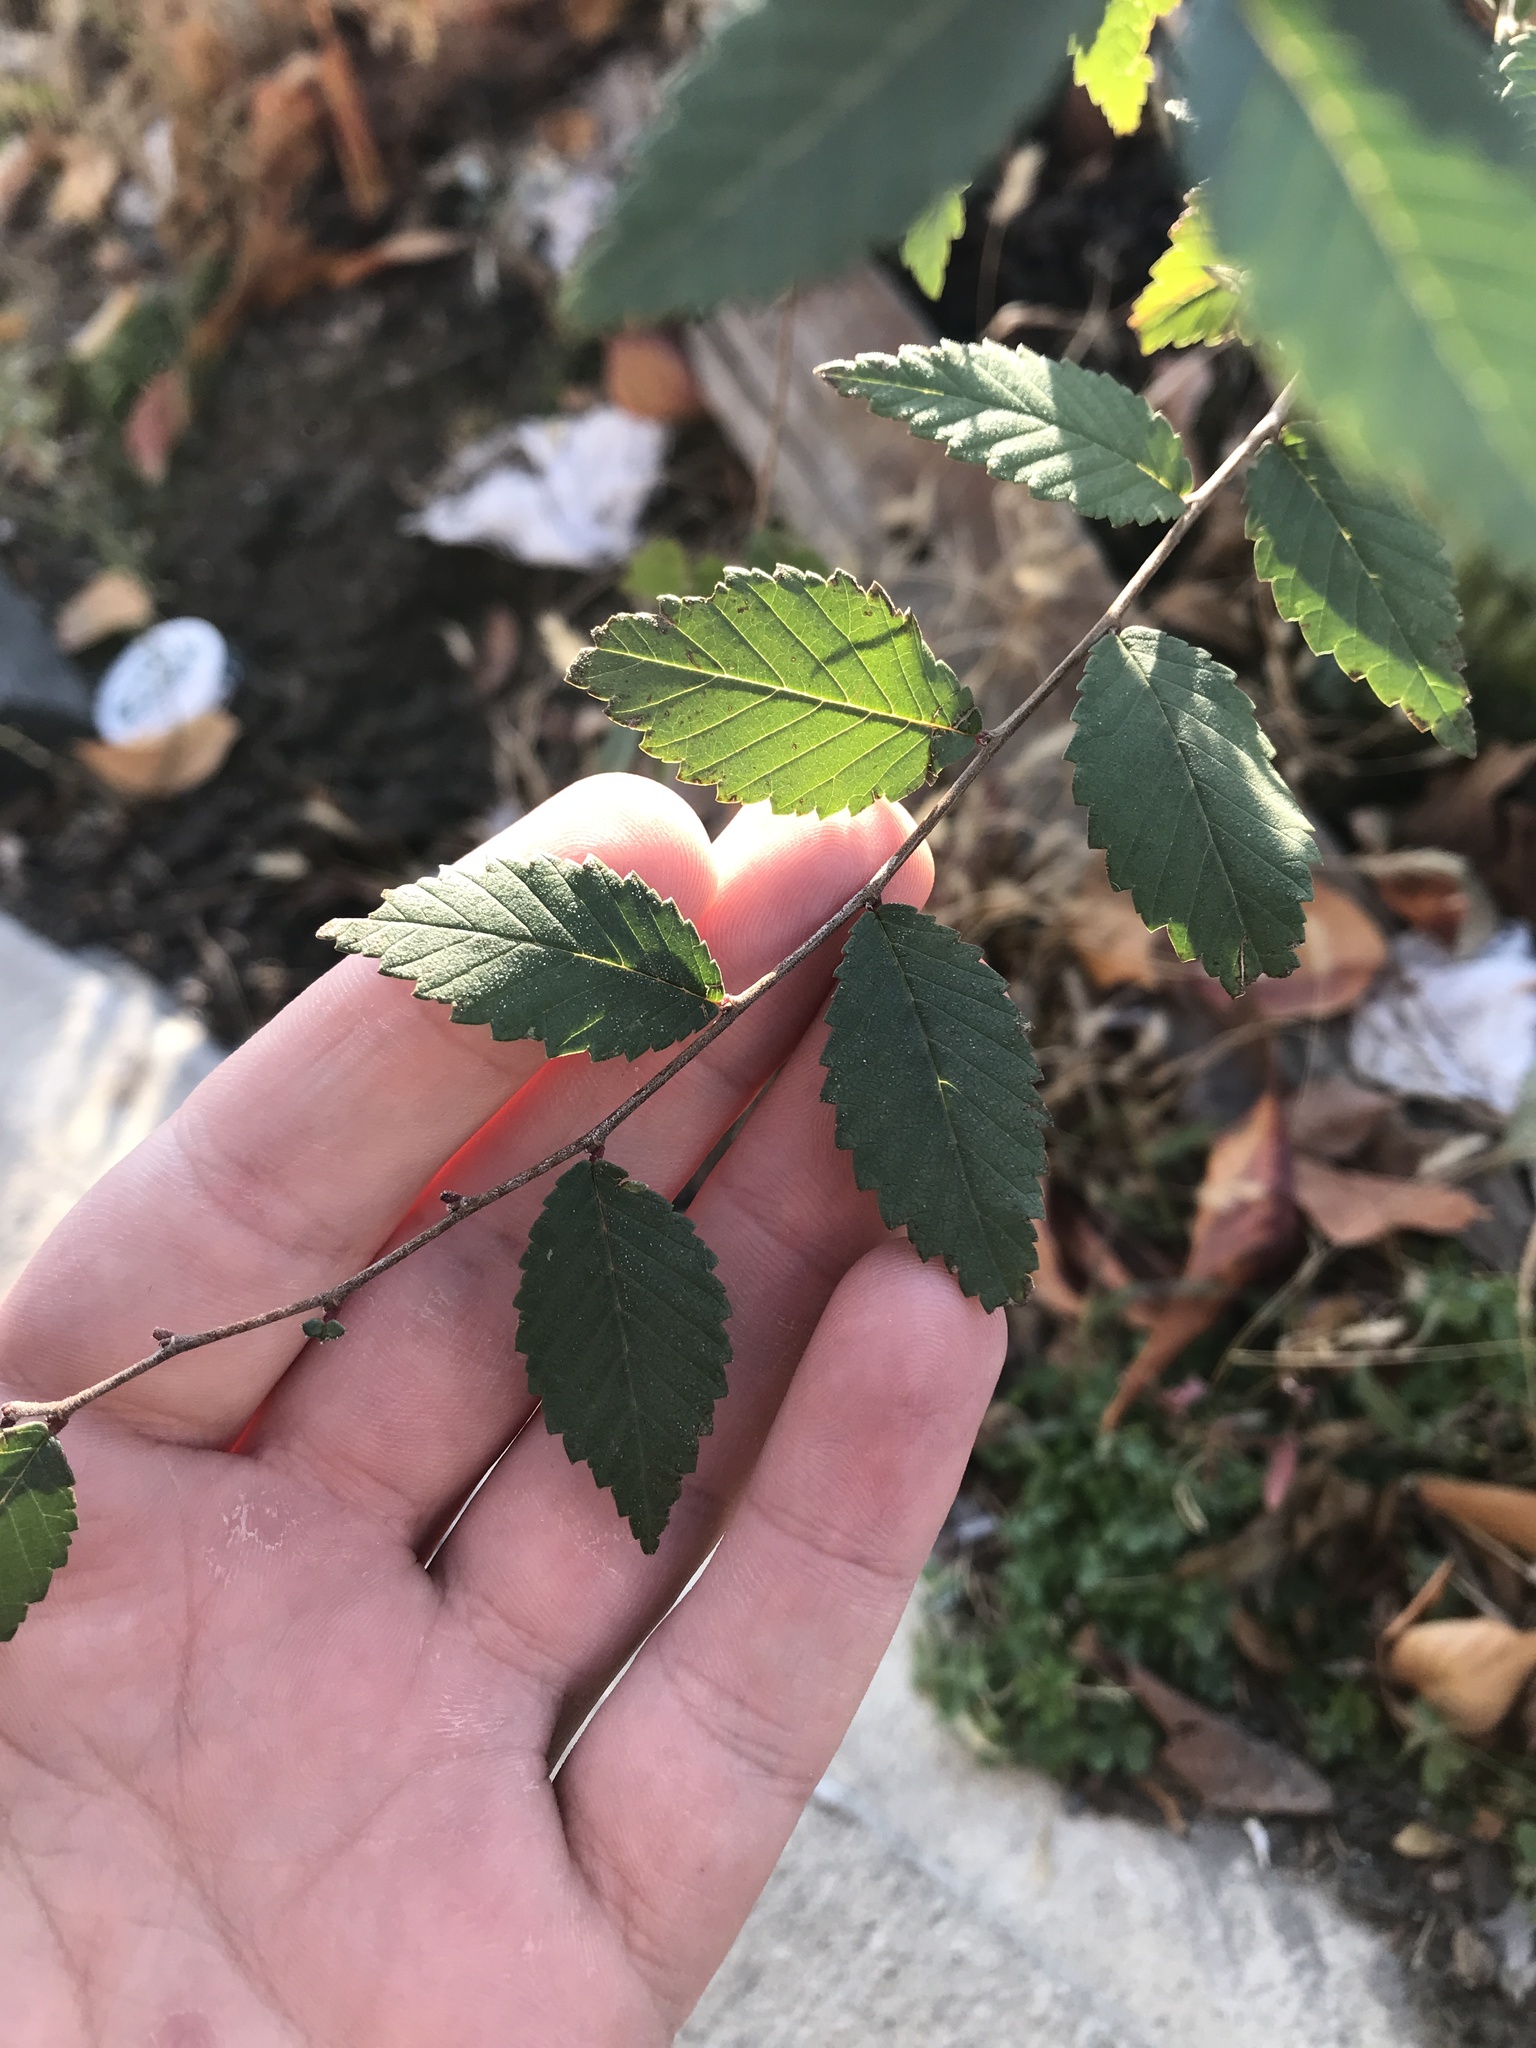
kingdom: Plantae
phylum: Tracheophyta
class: Magnoliopsida
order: Rosales
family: Ulmaceae
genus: Ulmus
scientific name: Ulmus pumila
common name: Siberian elm
